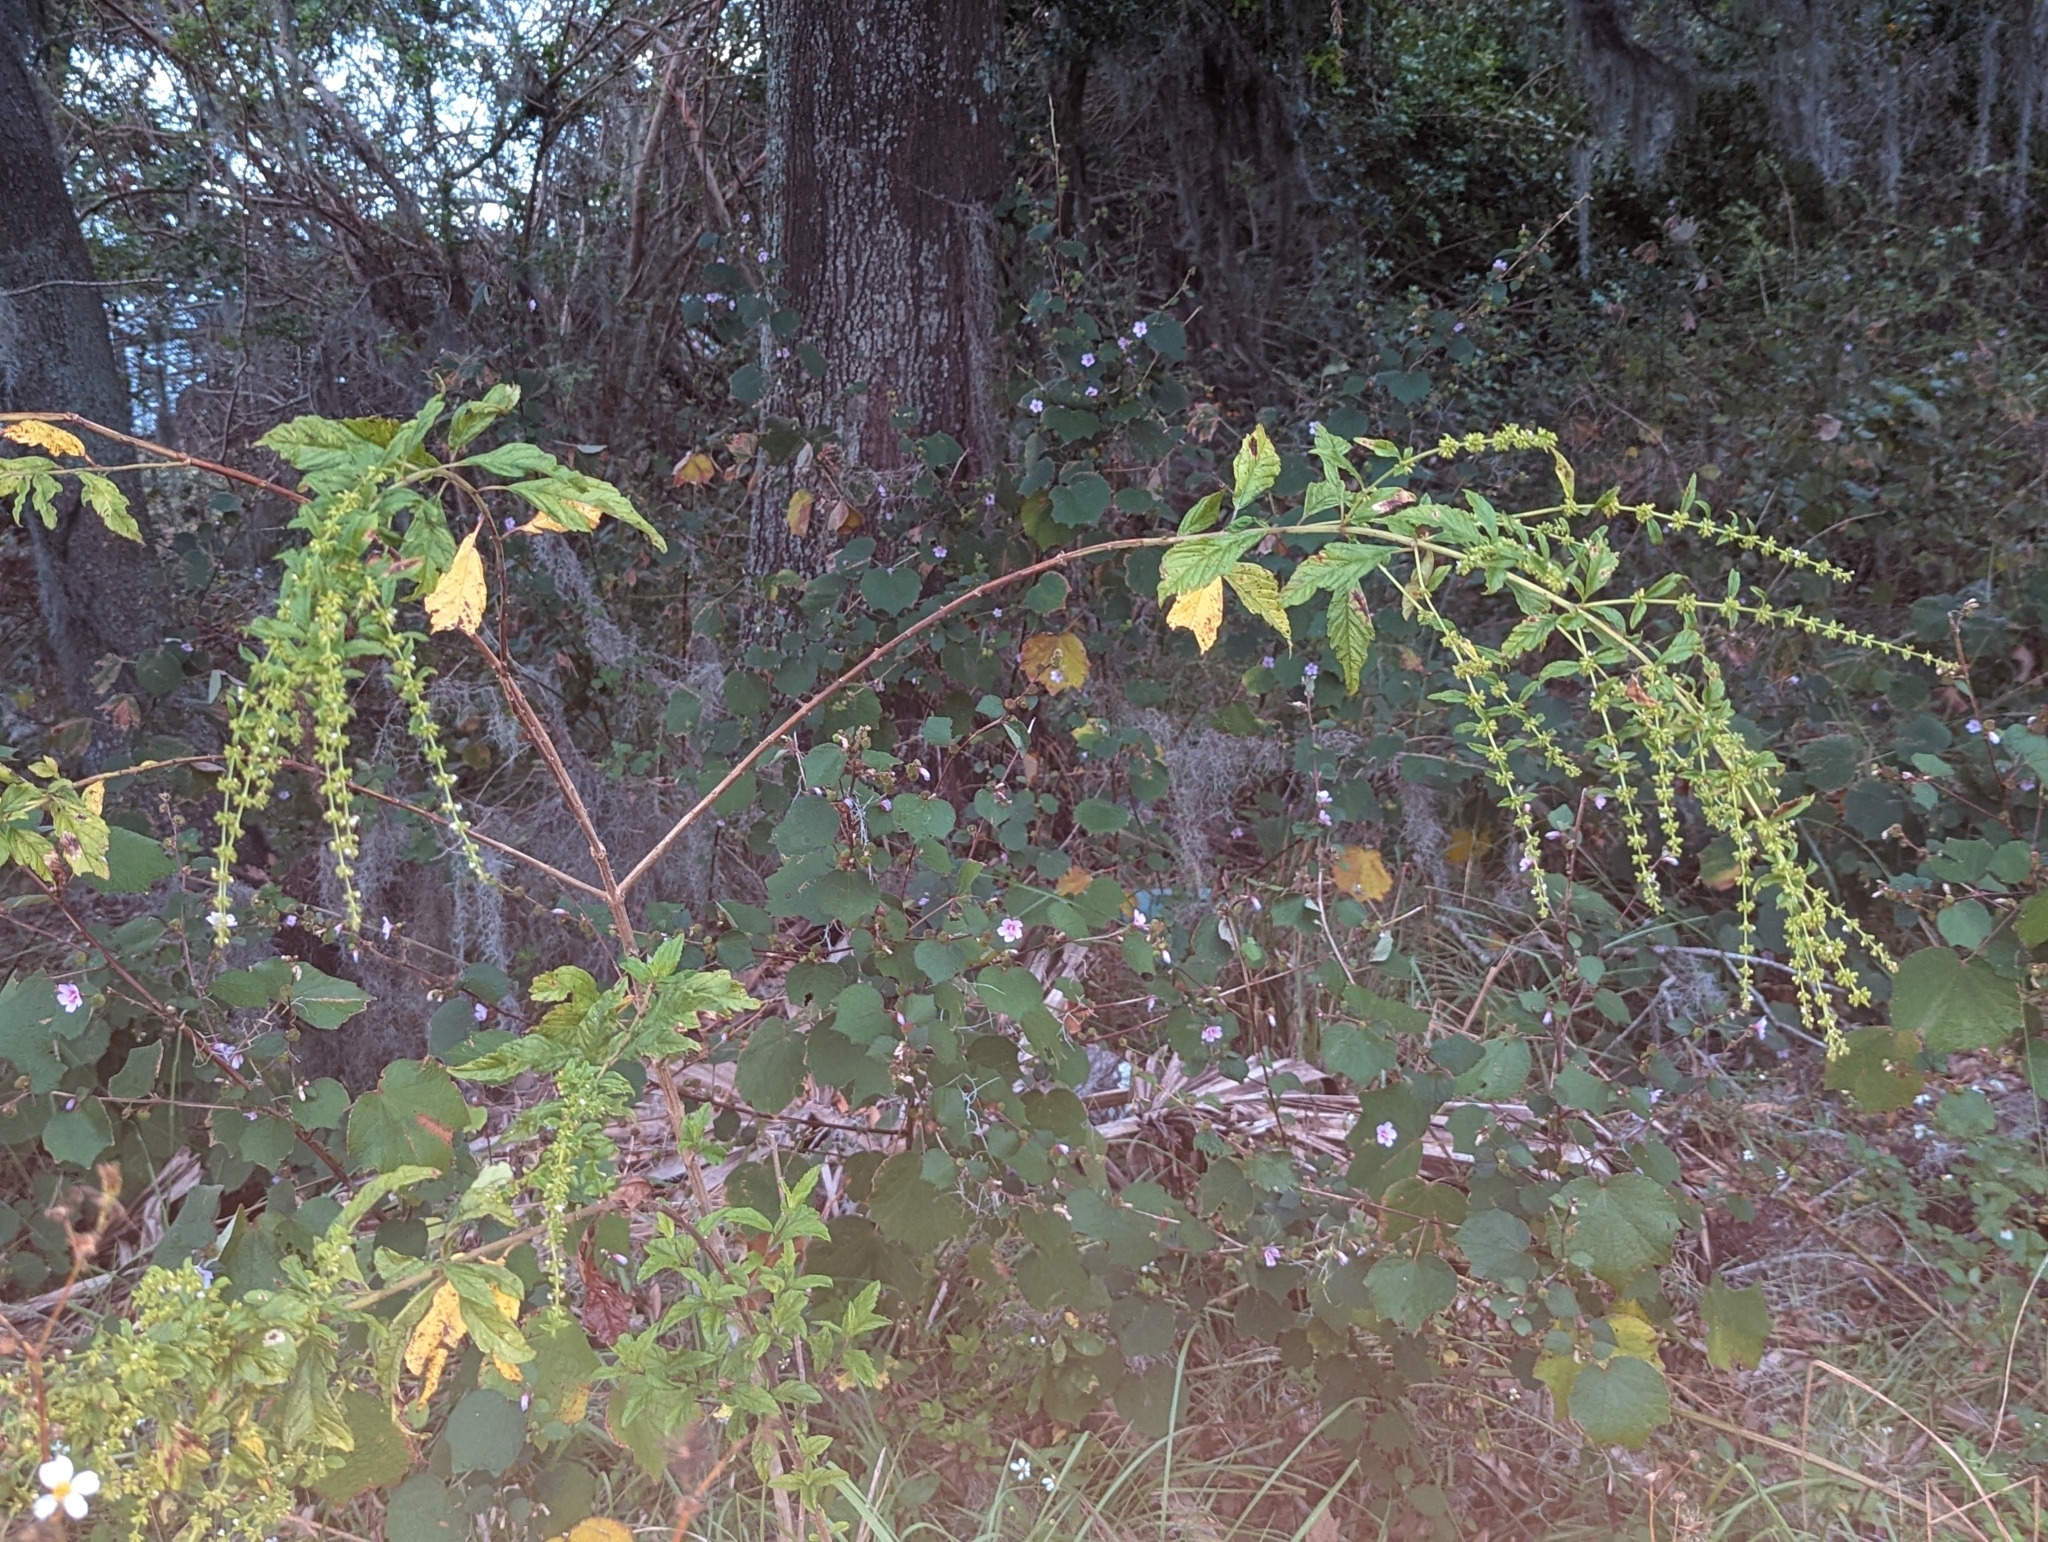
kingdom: Plantae
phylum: Tracheophyta
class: Magnoliopsida
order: Lamiales
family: Lamiaceae
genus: Condea
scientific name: Condea verticillata
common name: John charles
